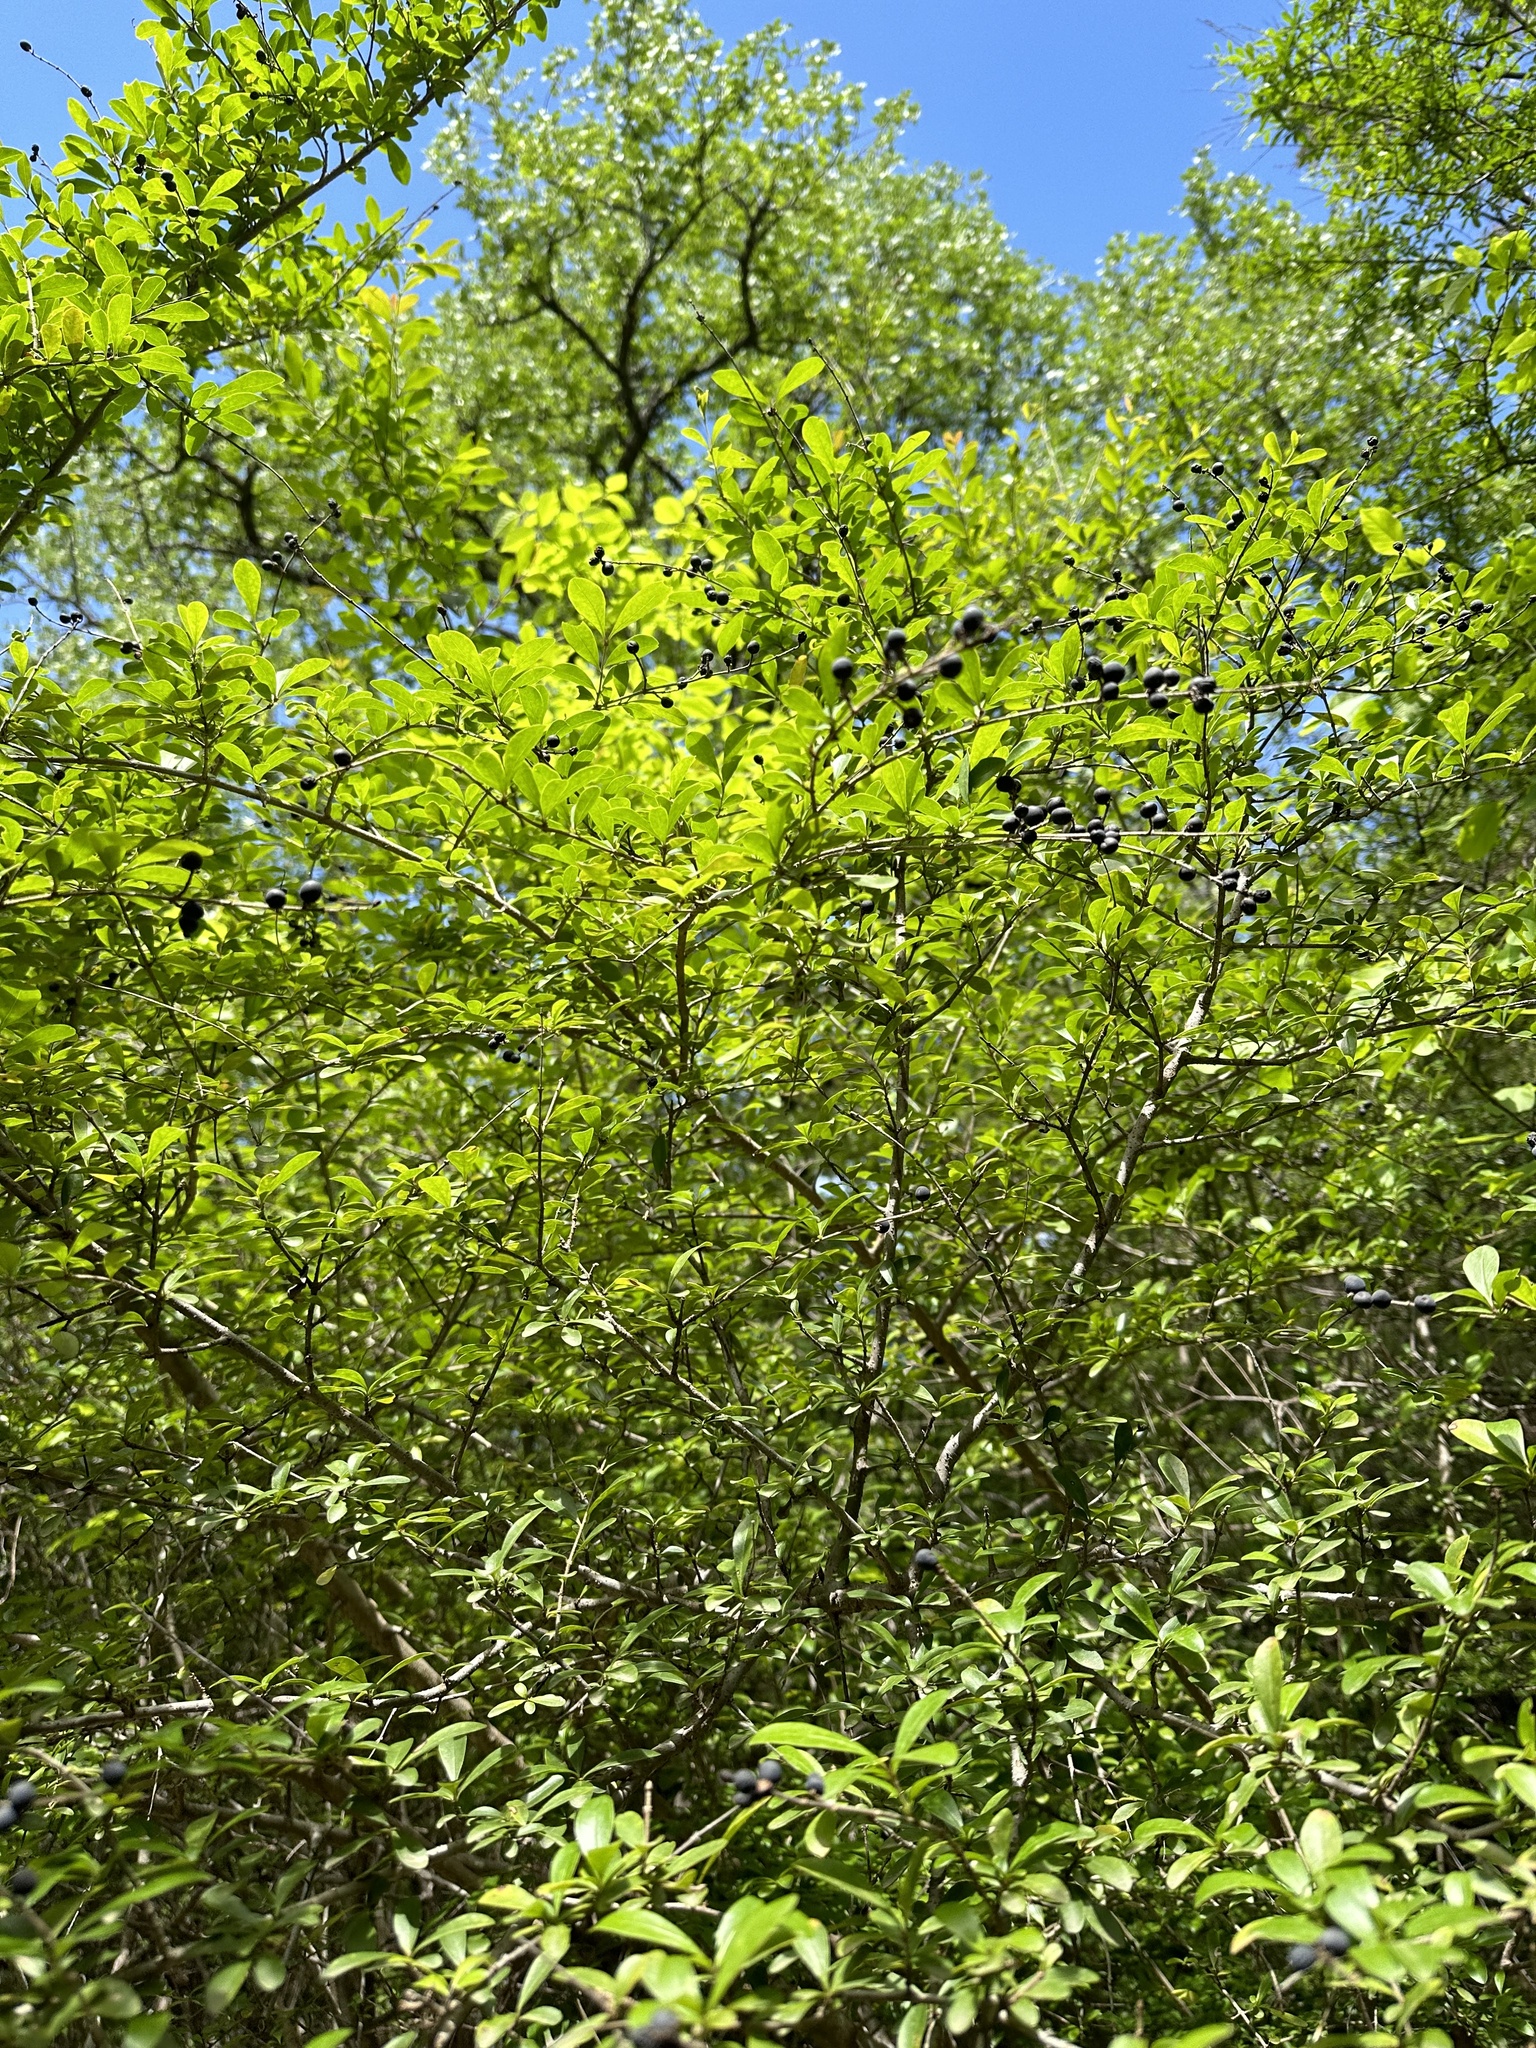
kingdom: Plantae
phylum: Tracheophyta
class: Magnoliopsida
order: Lamiales
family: Oleaceae
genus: Ligustrum
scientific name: Ligustrum quihoui
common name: Waxyleaf privet
